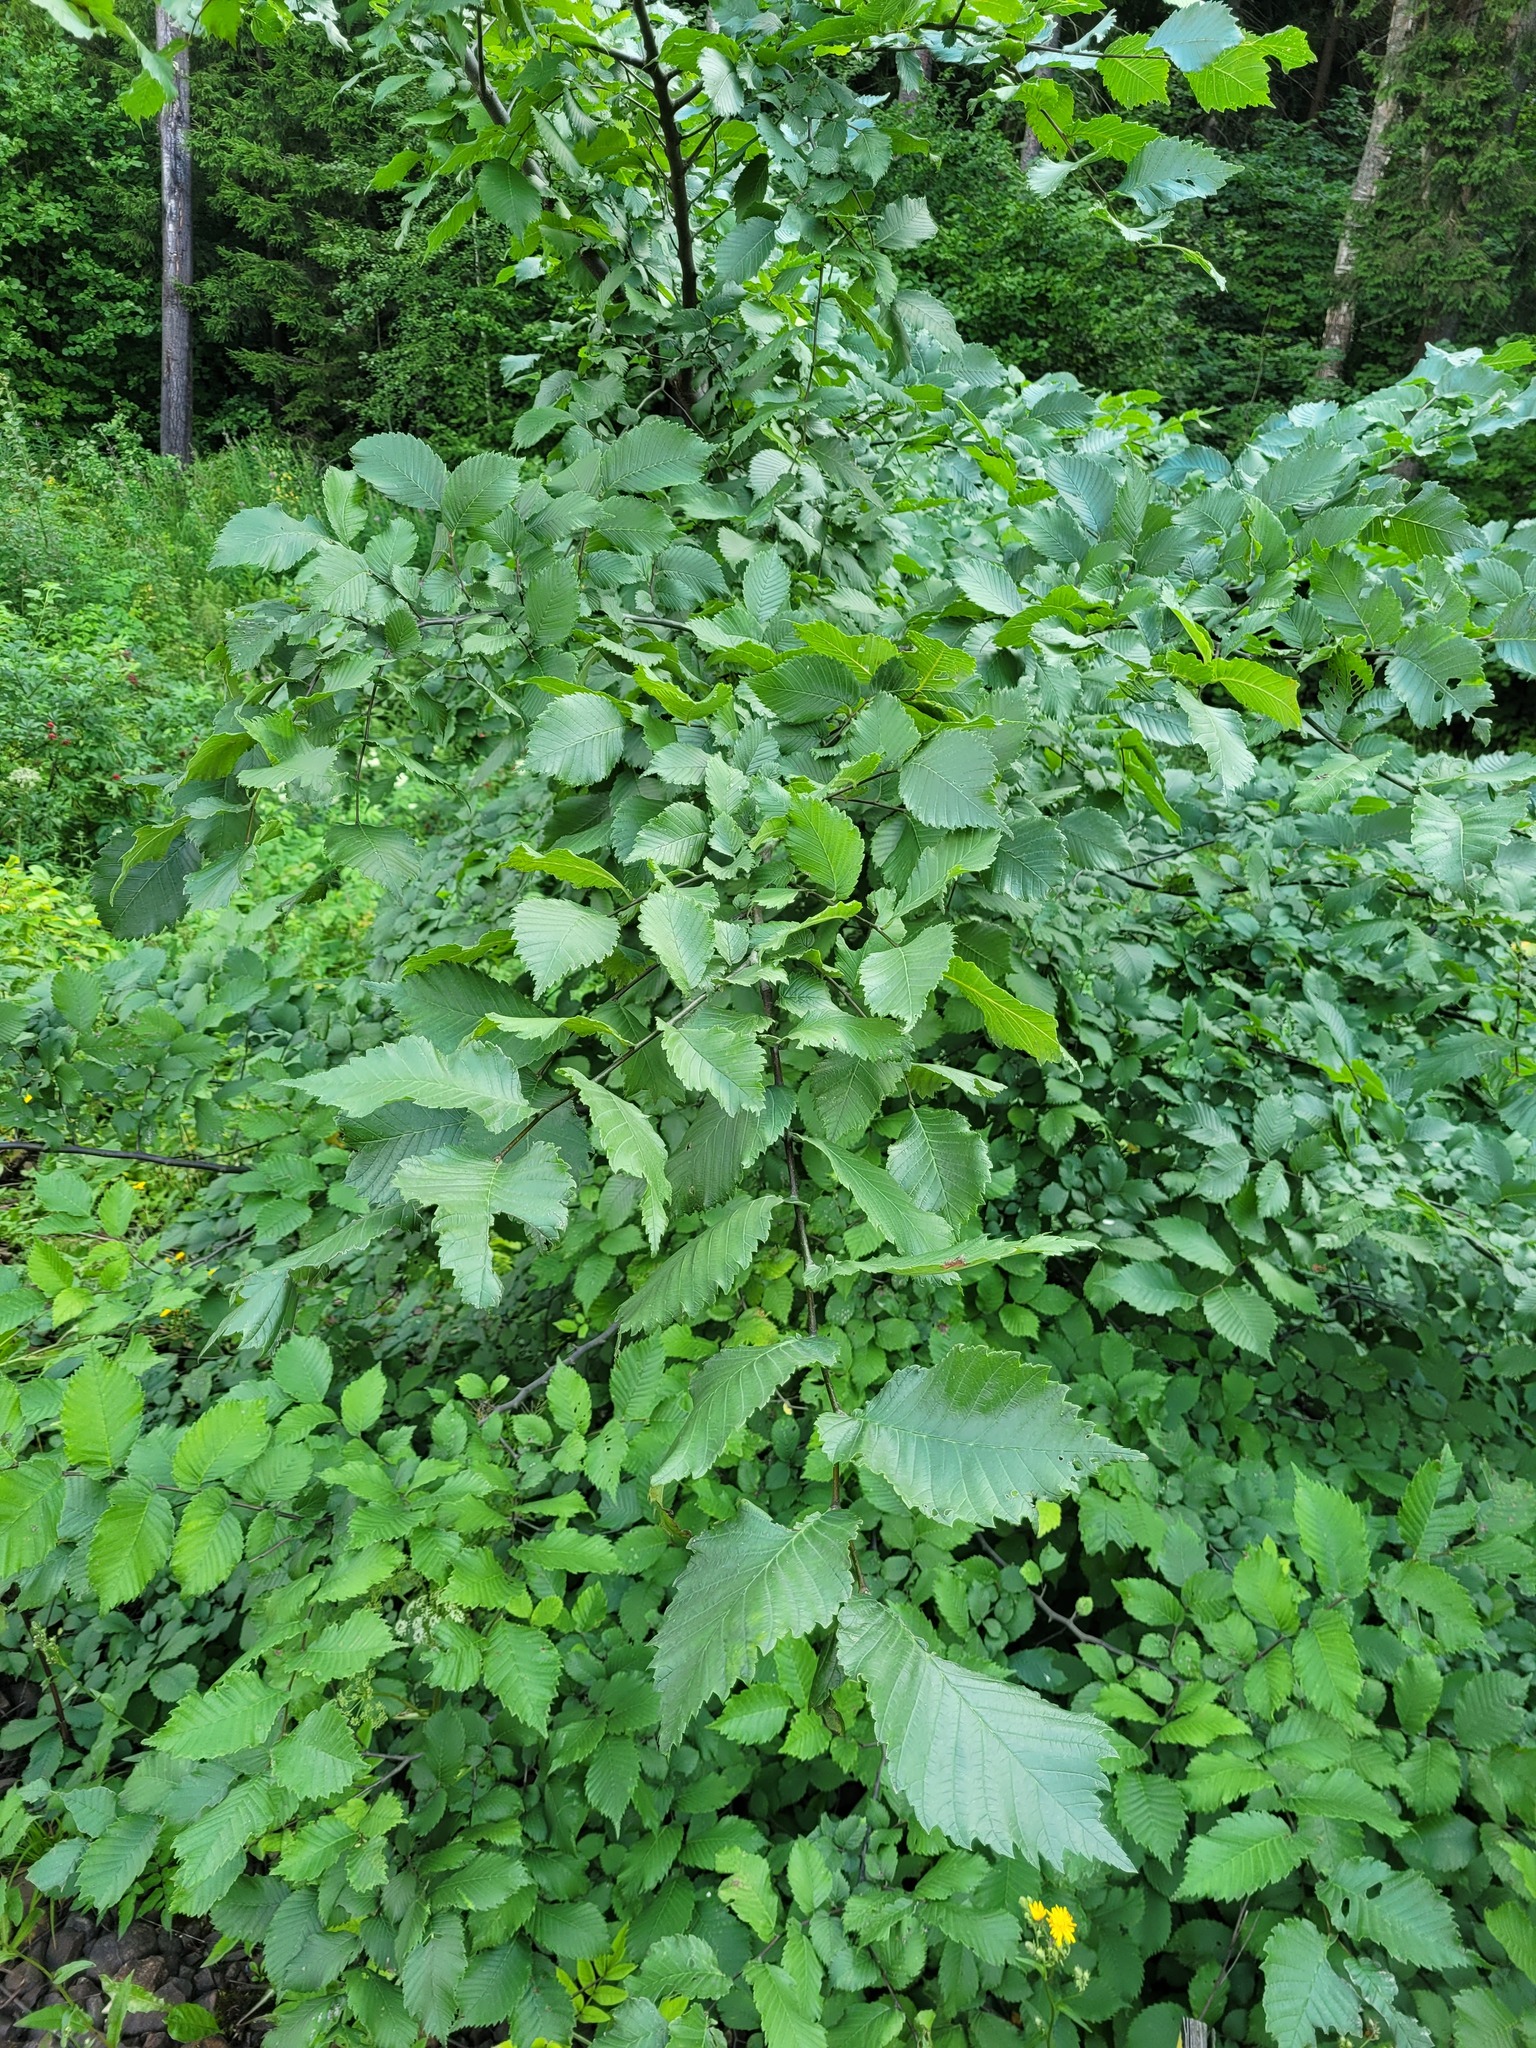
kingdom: Plantae
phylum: Tracheophyta
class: Magnoliopsida
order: Rosales
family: Ulmaceae
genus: Ulmus
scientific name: Ulmus laevis
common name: European white-elm
